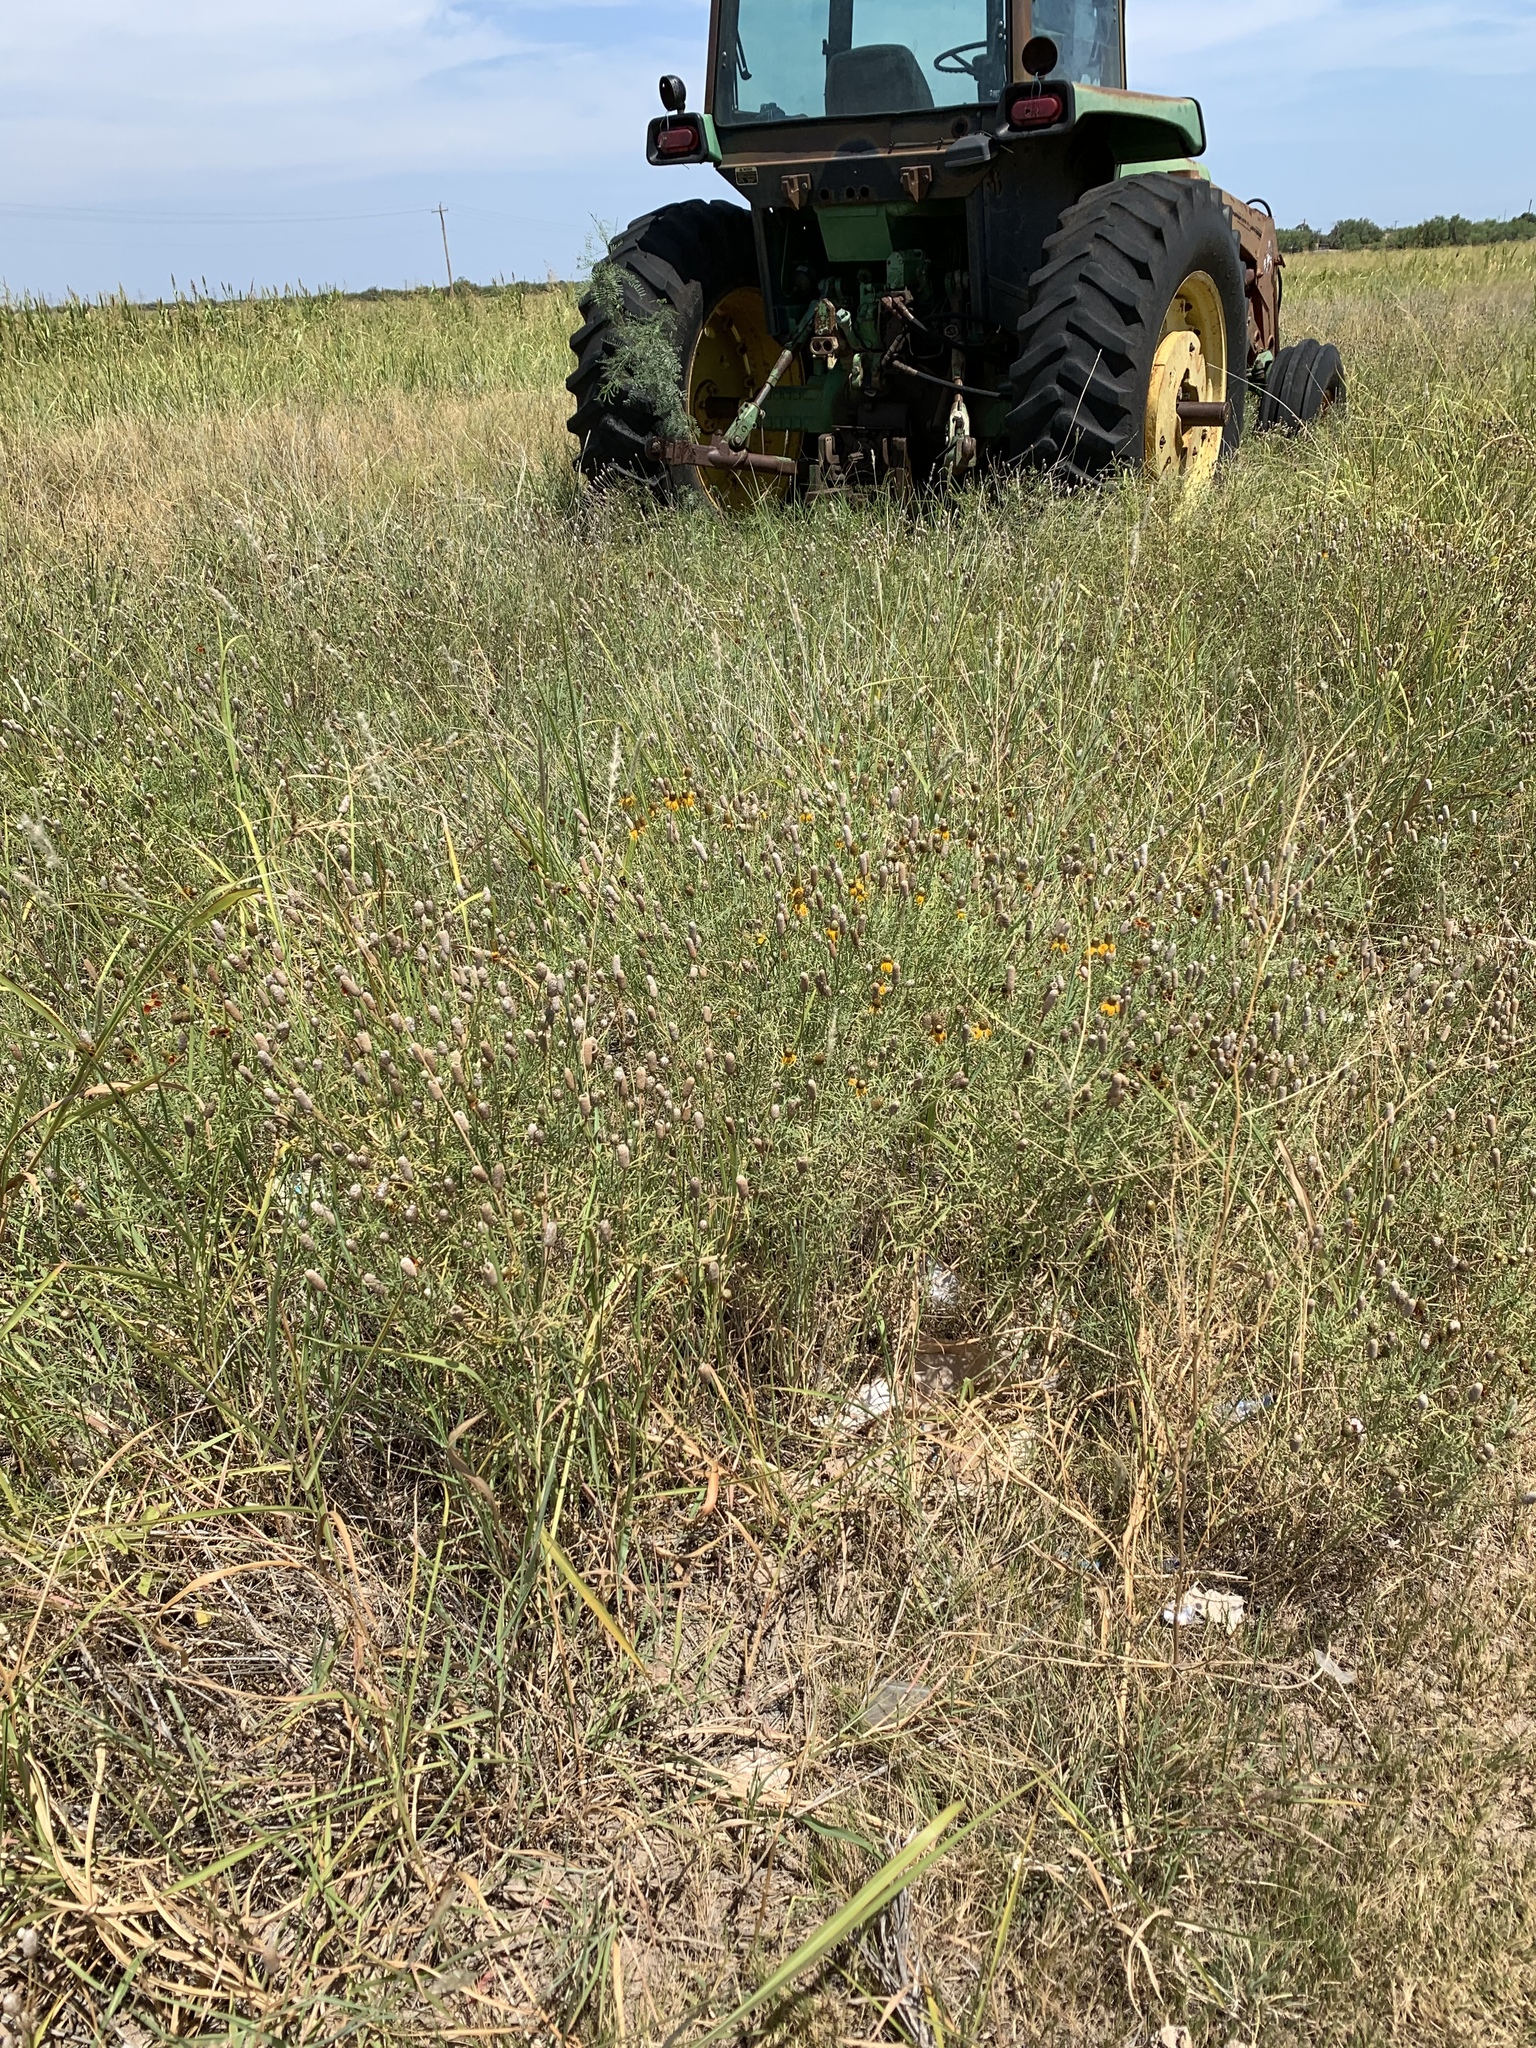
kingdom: Plantae
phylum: Tracheophyta
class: Magnoliopsida
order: Asterales
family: Asteraceae
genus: Ratibida
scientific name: Ratibida columnifera
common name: Prairie coneflower
